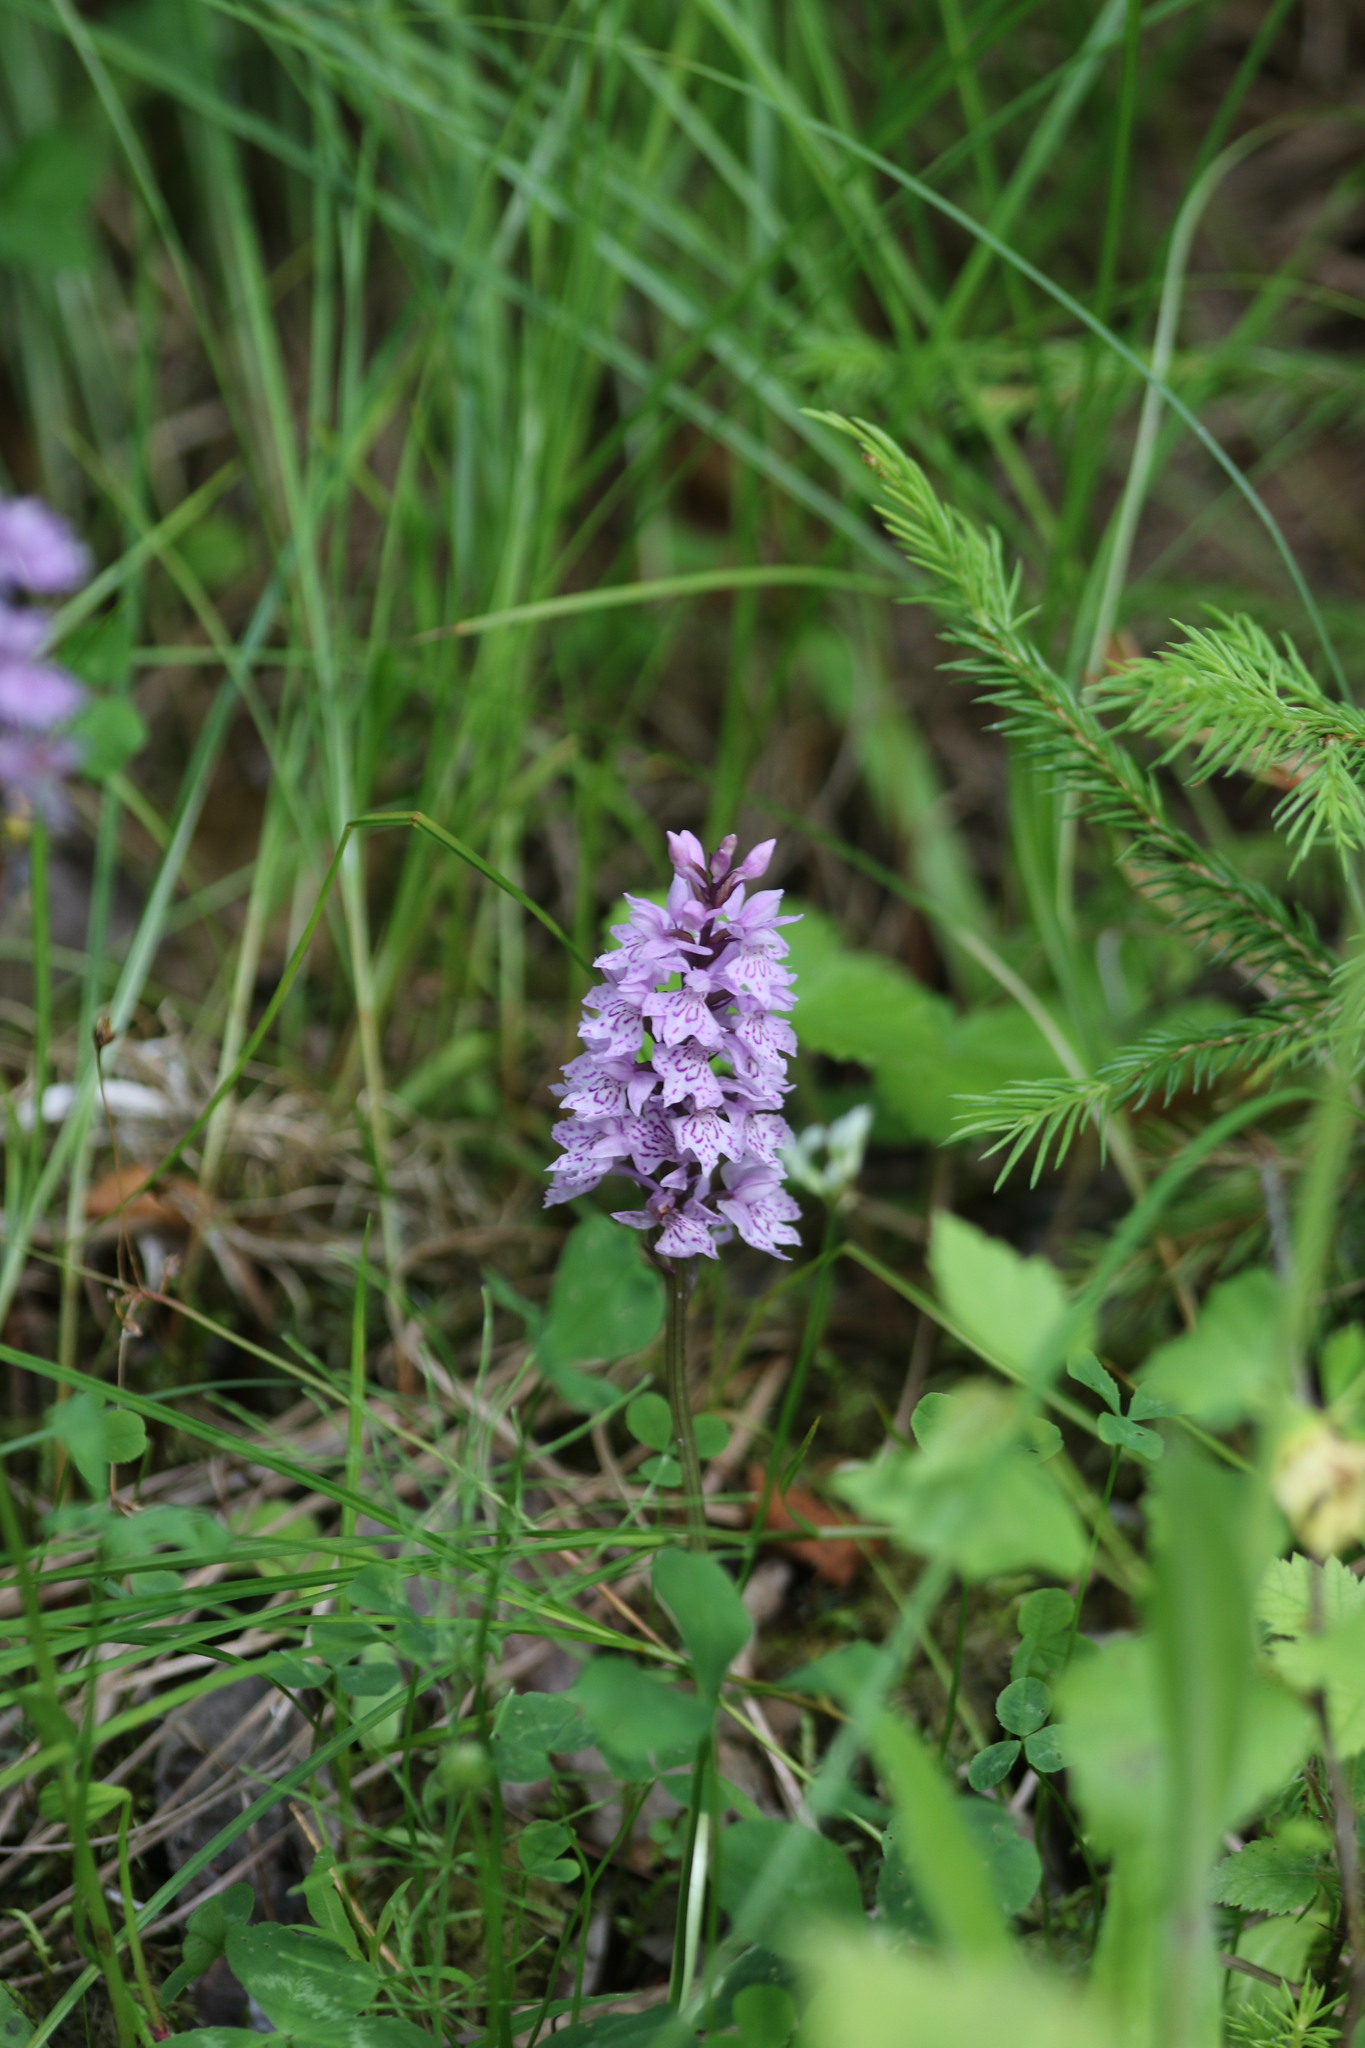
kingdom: Plantae
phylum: Tracheophyta
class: Liliopsida
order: Asparagales
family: Orchidaceae
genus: Dactylorhiza
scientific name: Dactylorhiza maculata
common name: Heath spotted-orchid
